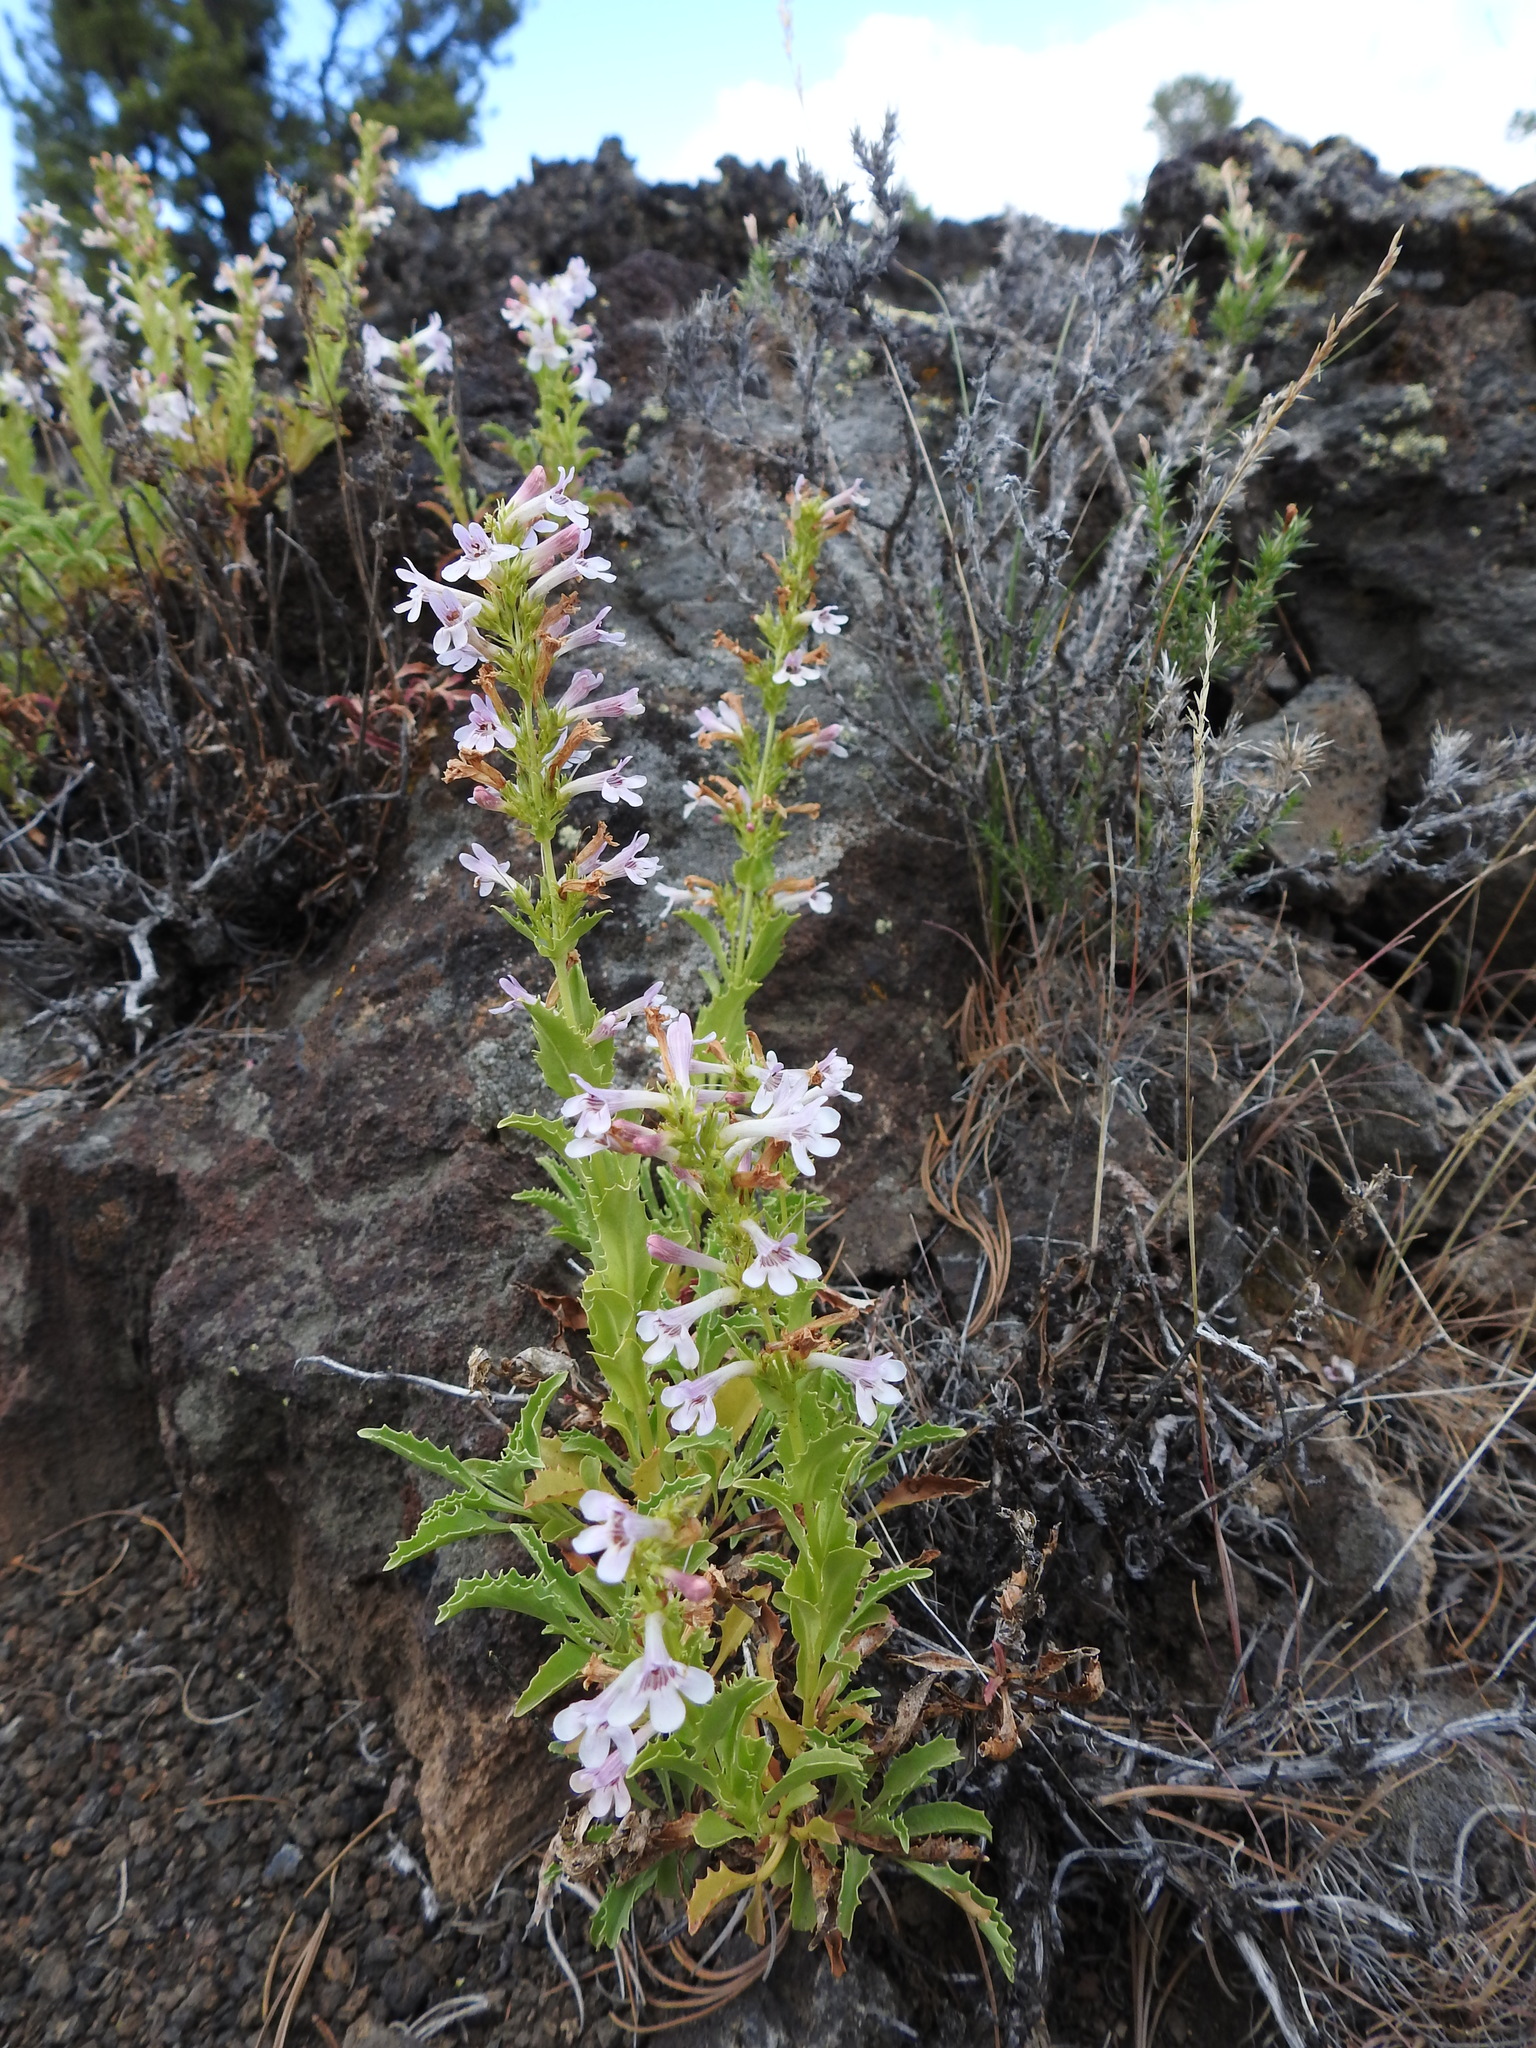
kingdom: Plantae
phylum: Tracheophyta
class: Magnoliopsida
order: Lamiales
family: Plantaginaceae
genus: Penstemon
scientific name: Penstemon deustus
